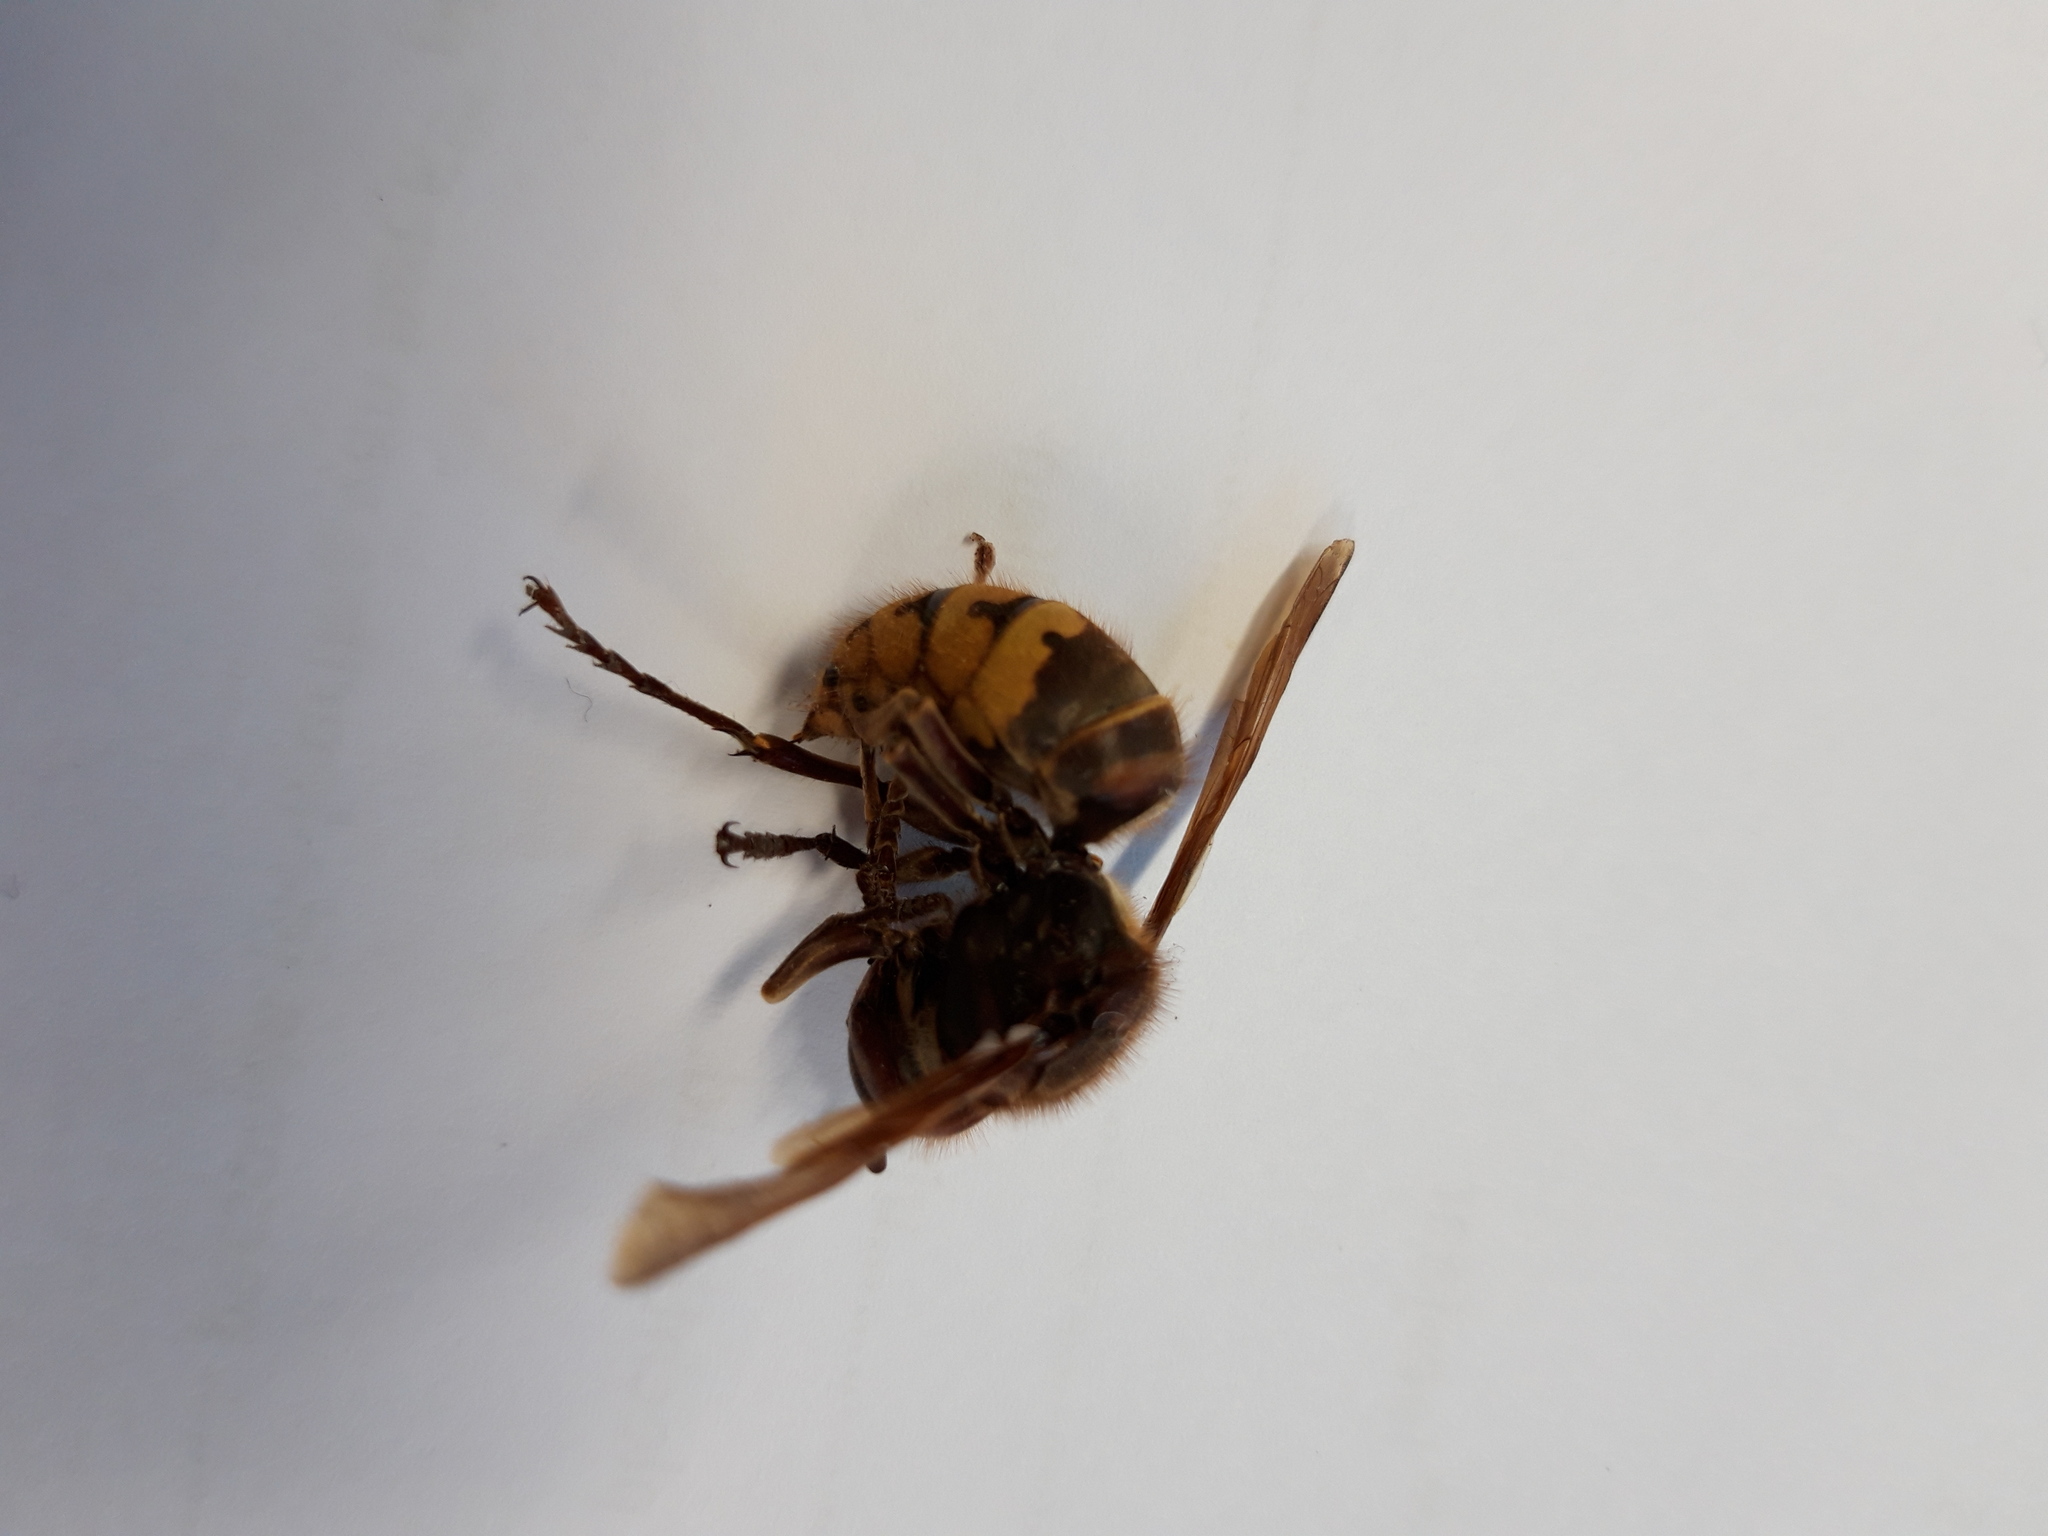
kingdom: Animalia
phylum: Arthropoda
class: Insecta
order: Hymenoptera
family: Vespidae
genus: Vespa
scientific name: Vespa crabro
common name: Hornet
